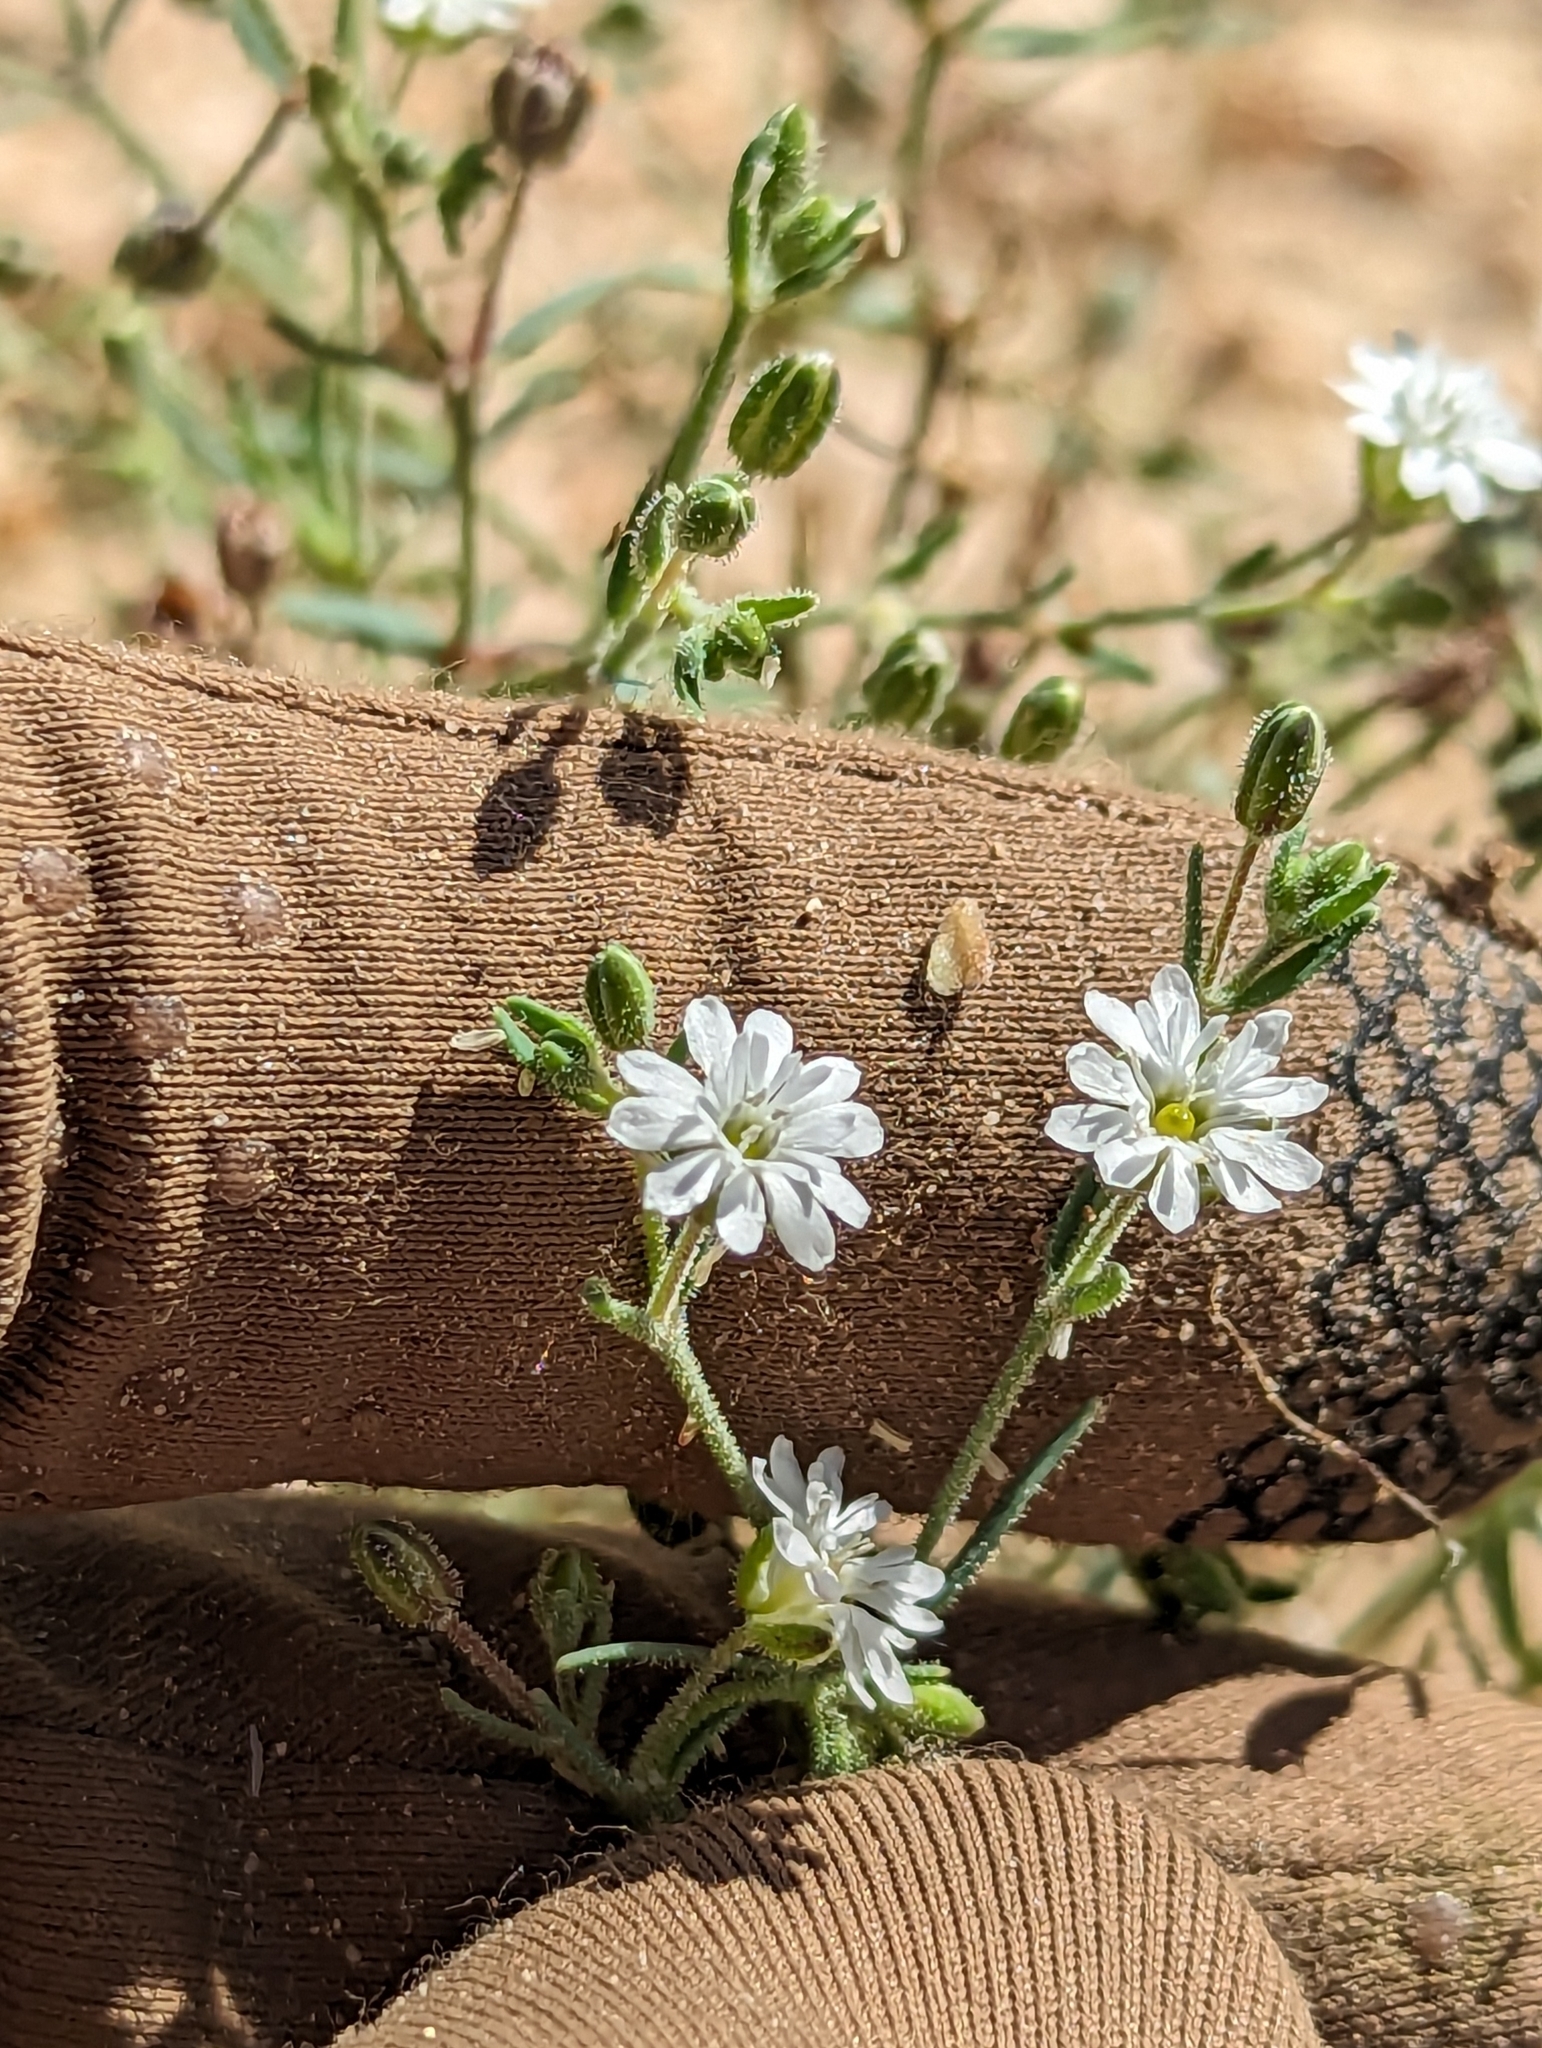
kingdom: Plantae
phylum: Tracheophyta
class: Magnoliopsida
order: Caryophyllales
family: Caryophyllaceae
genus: Drymaria
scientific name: Drymaria arenarioides
